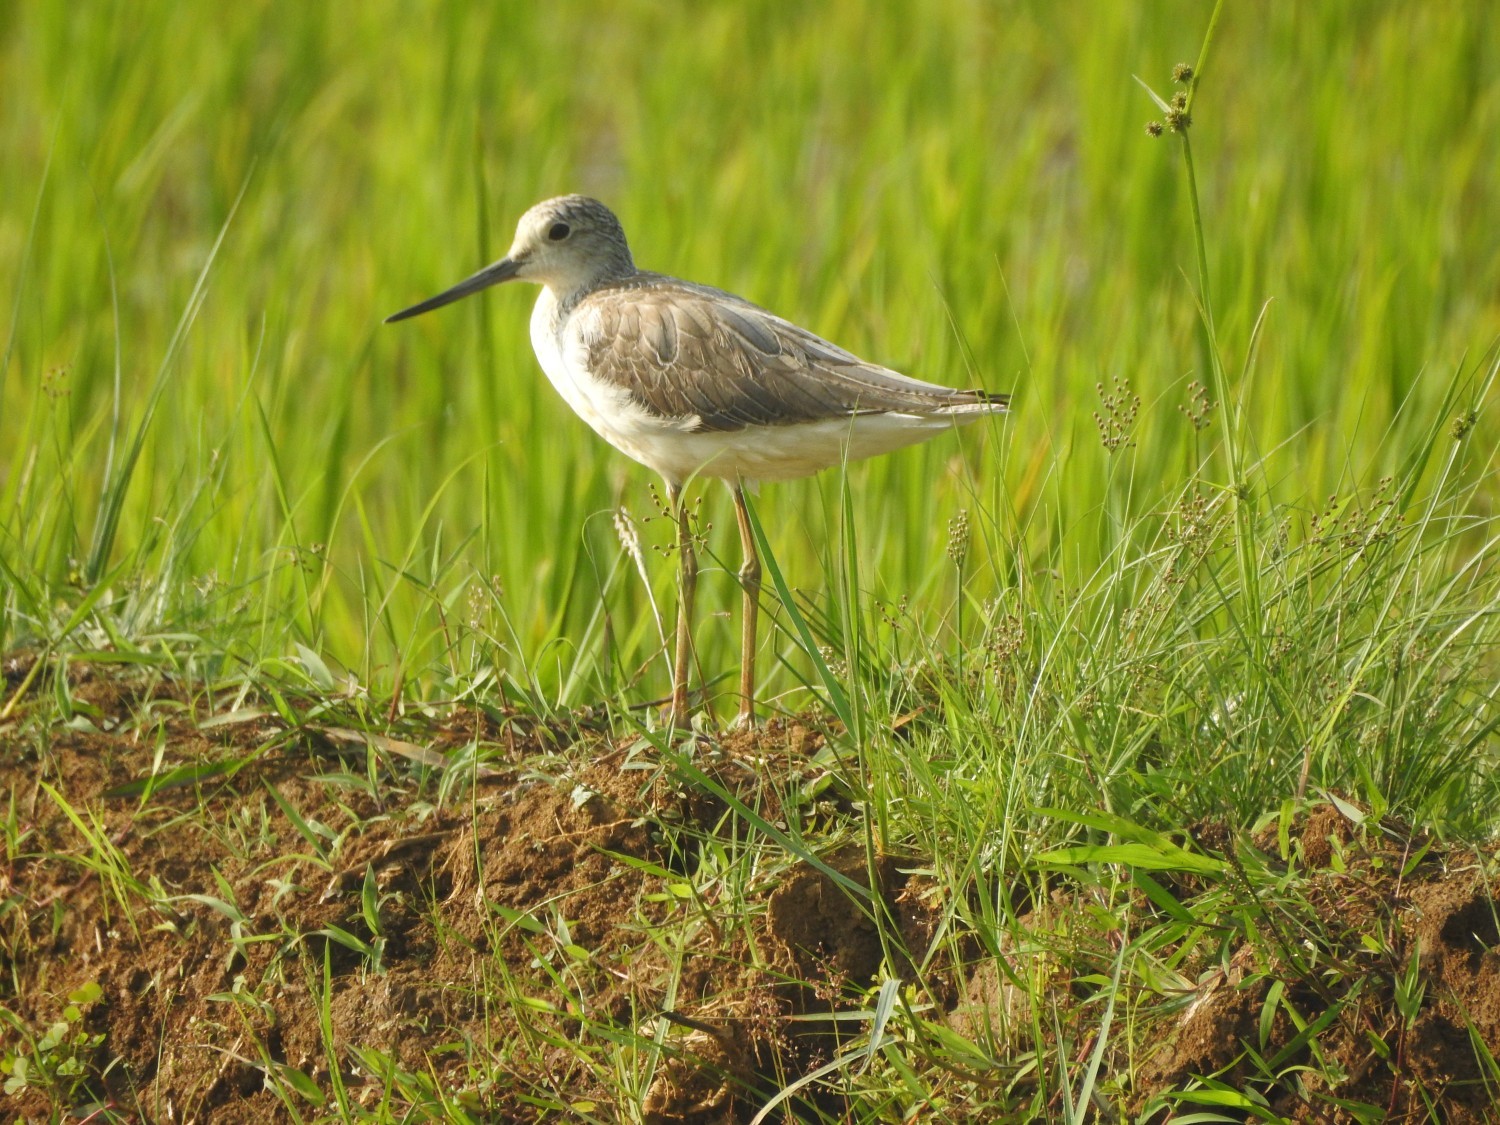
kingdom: Animalia
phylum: Chordata
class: Aves
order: Charadriiformes
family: Scolopacidae
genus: Tringa
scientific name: Tringa nebularia
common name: Common greenshank
